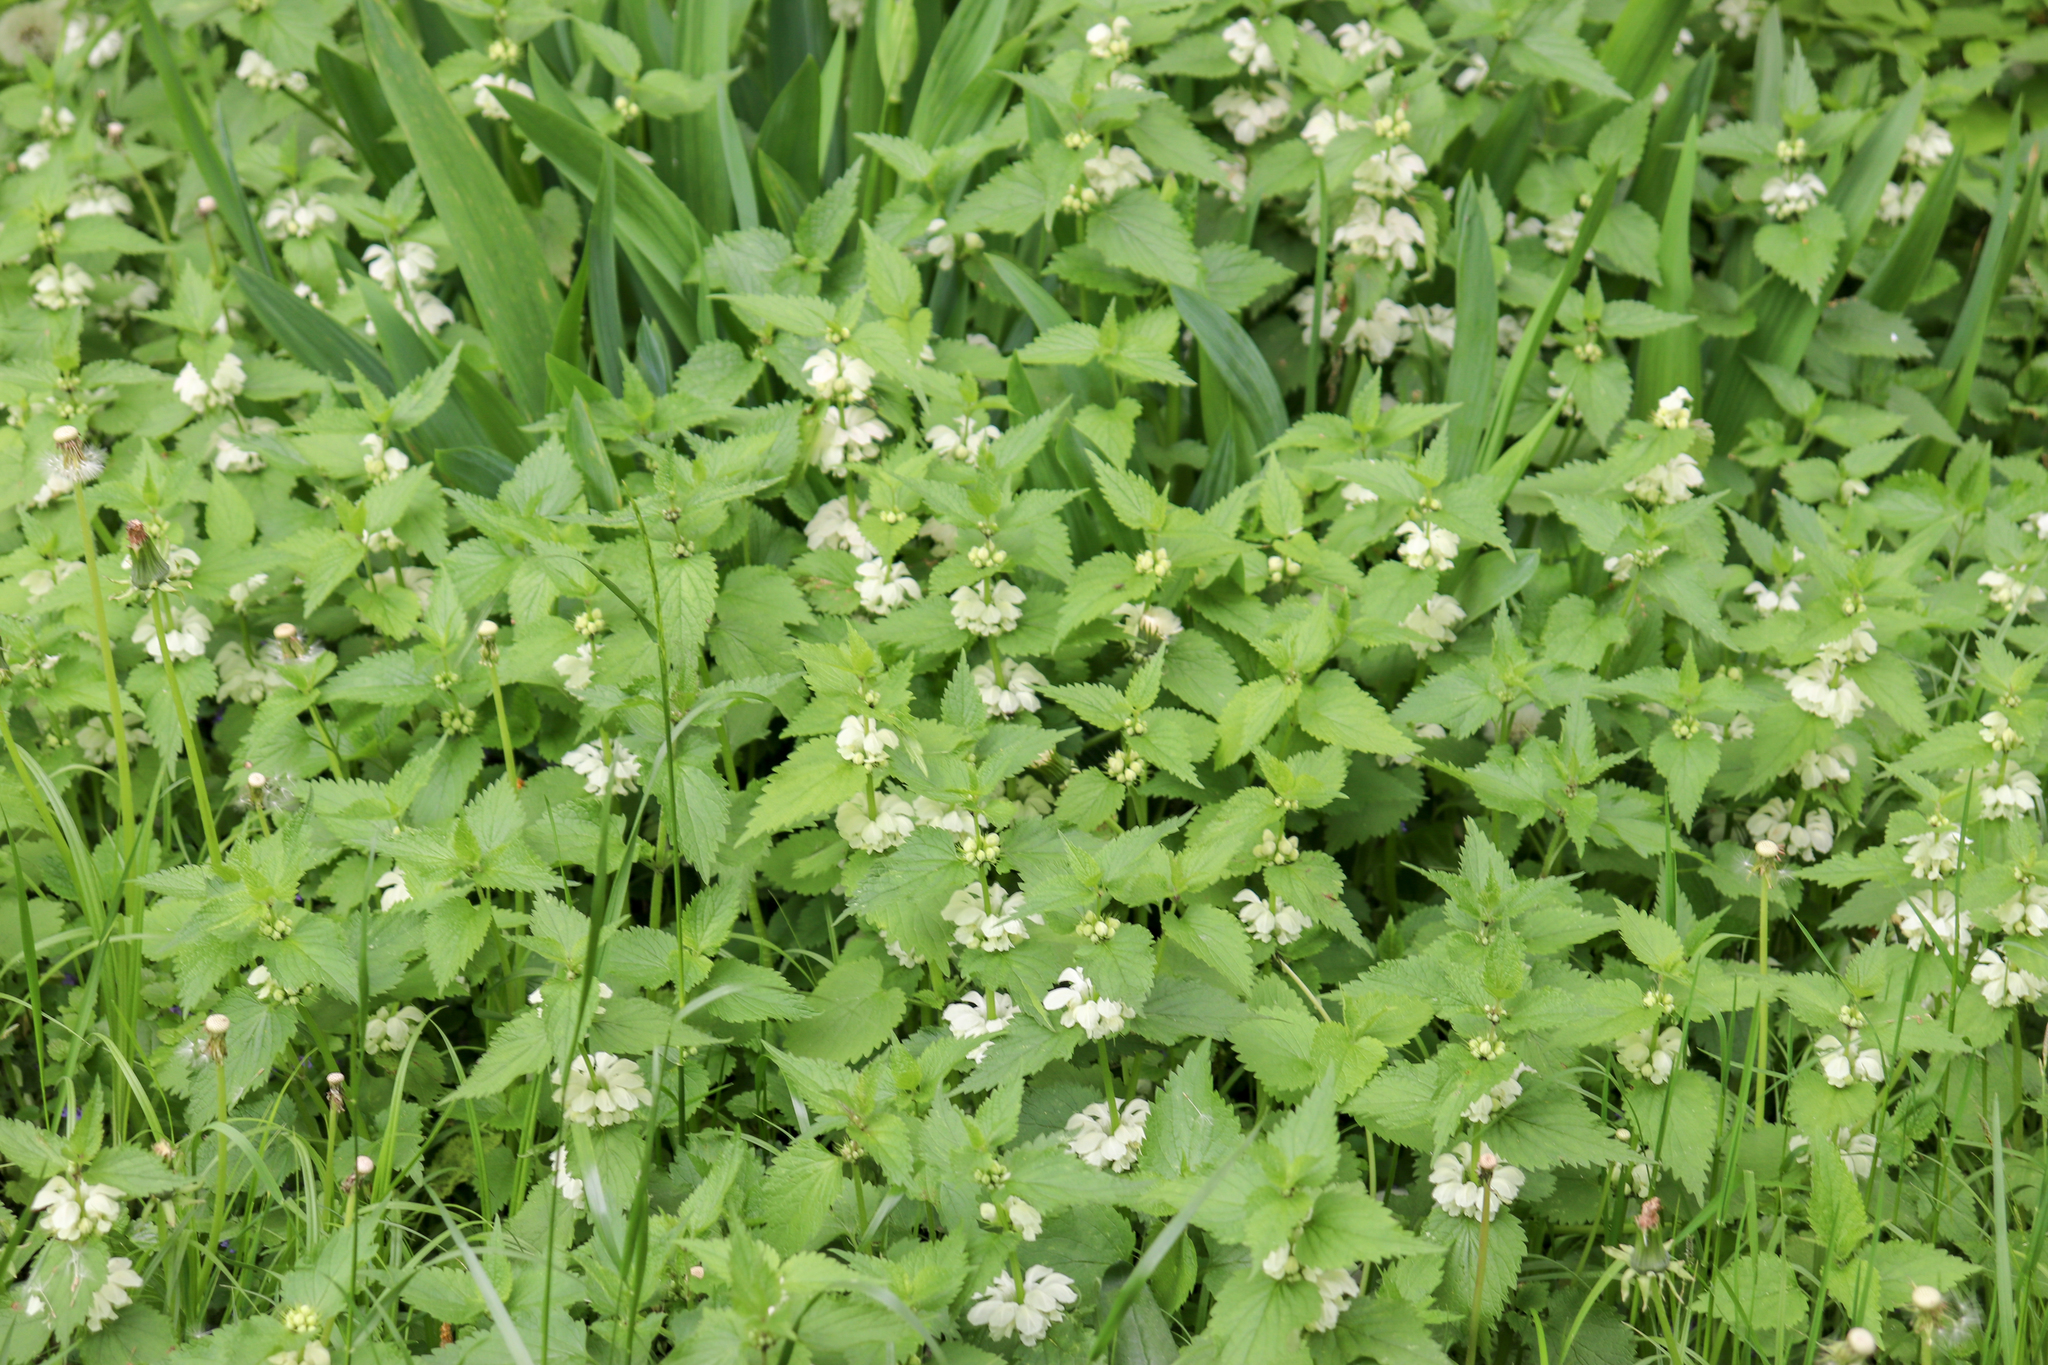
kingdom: Plantae
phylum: Tracheophyta
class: Magnoliopsida
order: Lamiales
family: Lamiaceae
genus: Lamium
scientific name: Lamium album
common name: White dead-nettle
